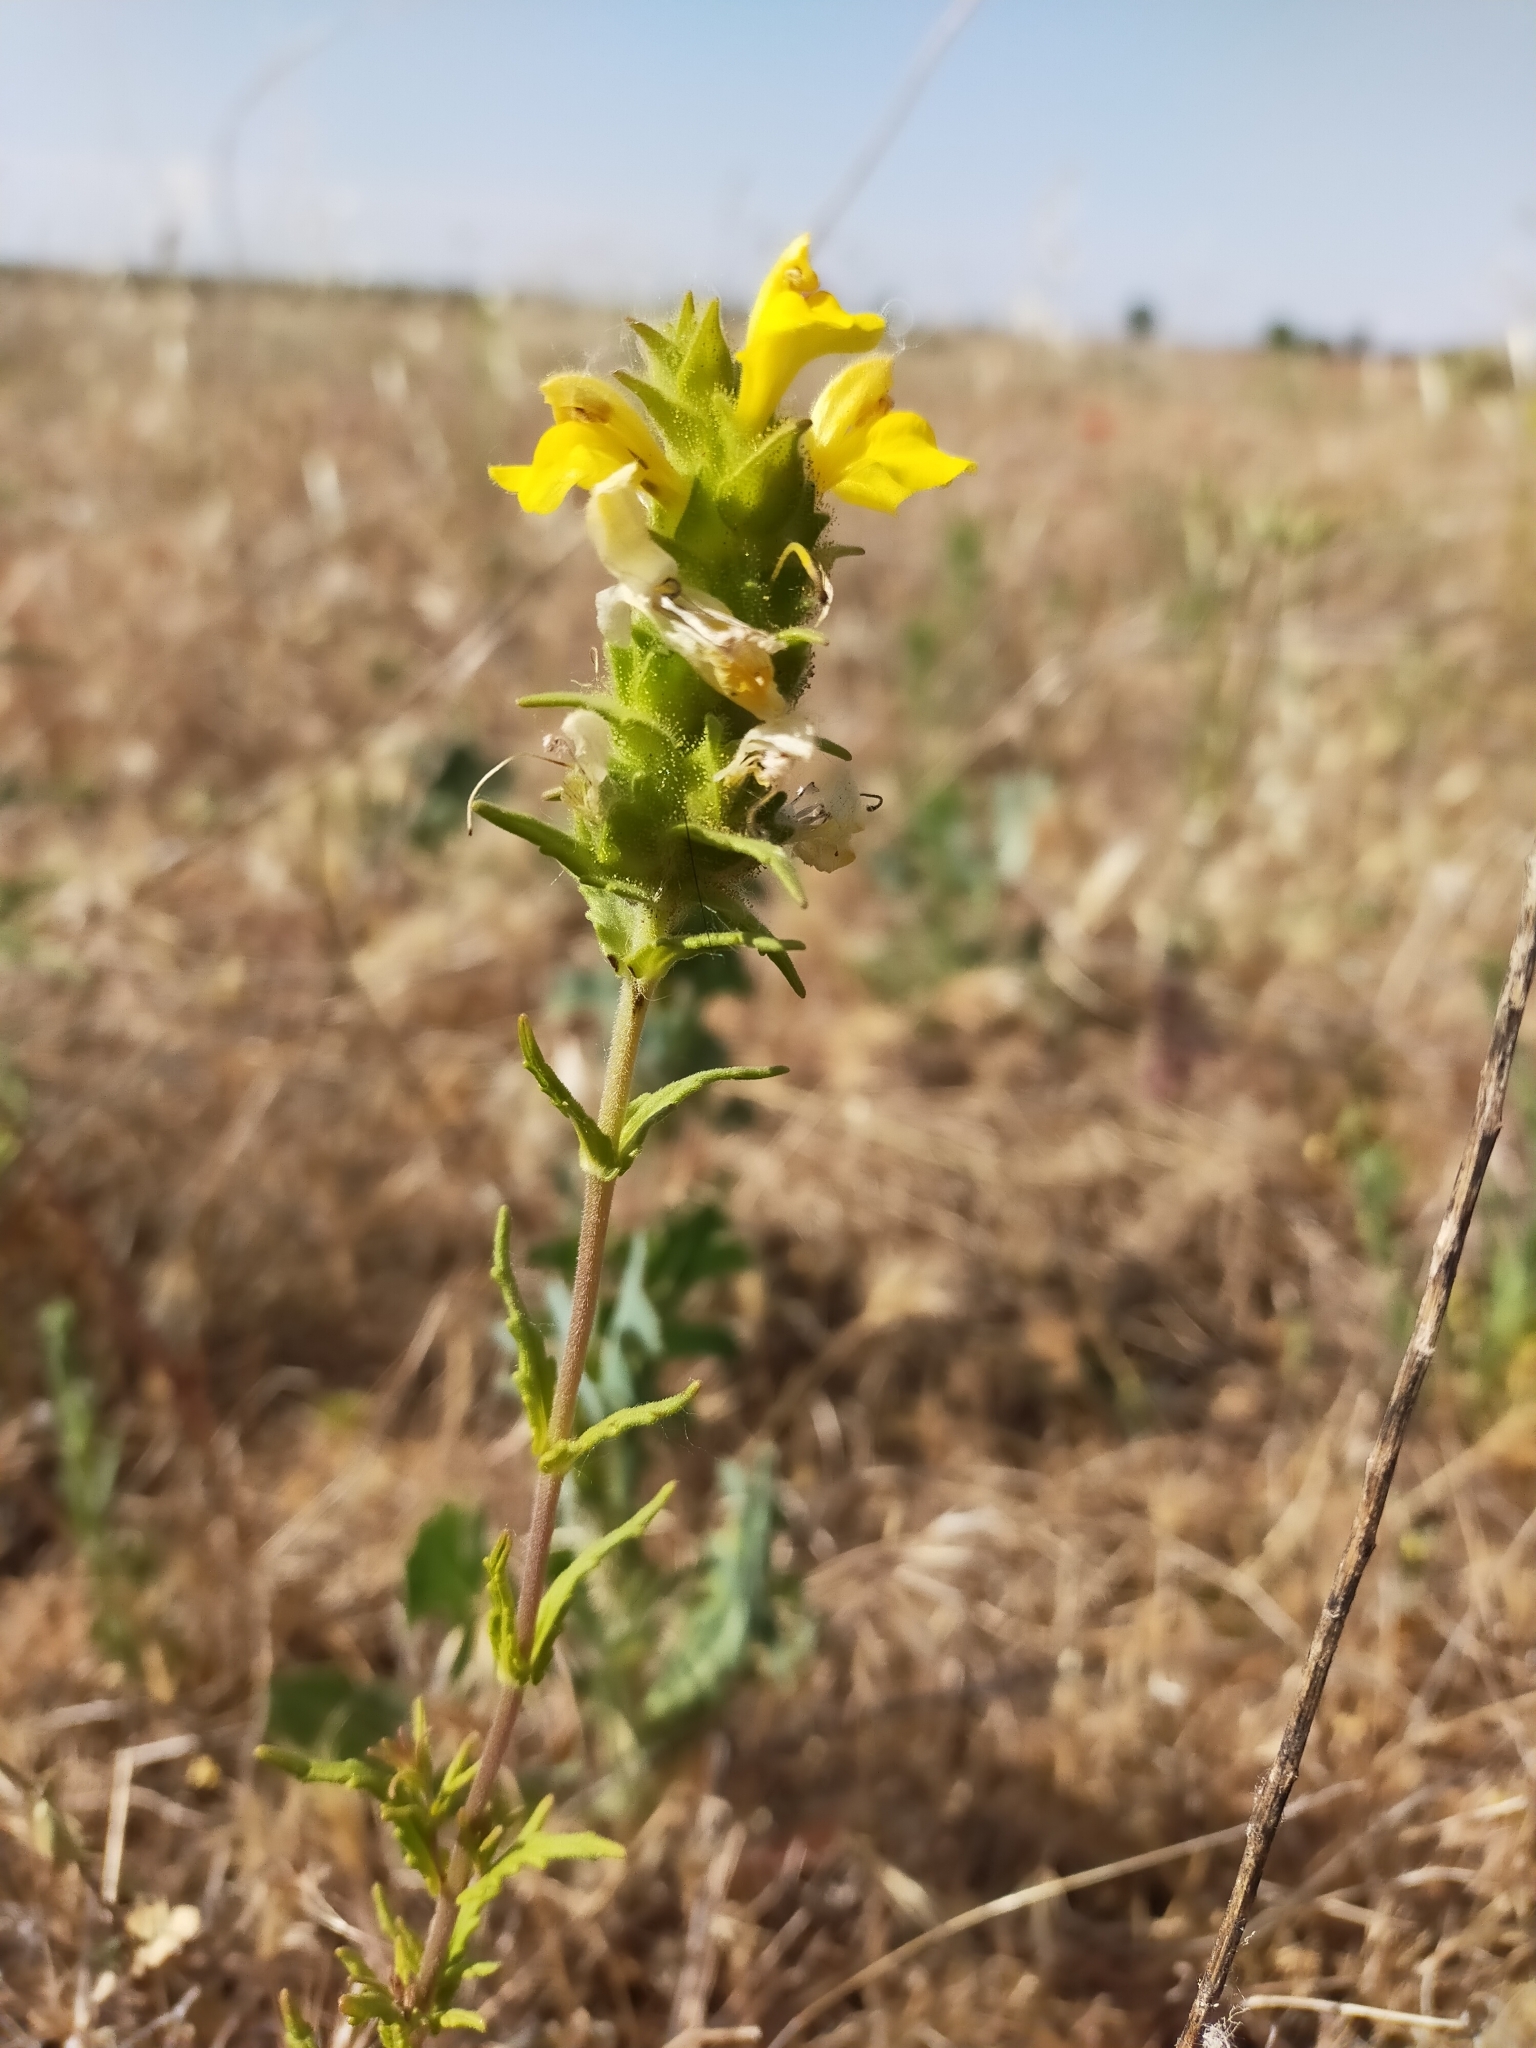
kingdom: Plantae
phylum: Tracheophyta
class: Magnoliopsida
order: Lamiales
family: Orobanchaceae
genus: Bellardia
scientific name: Bellardia trixago
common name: Mediterranean lineseed
